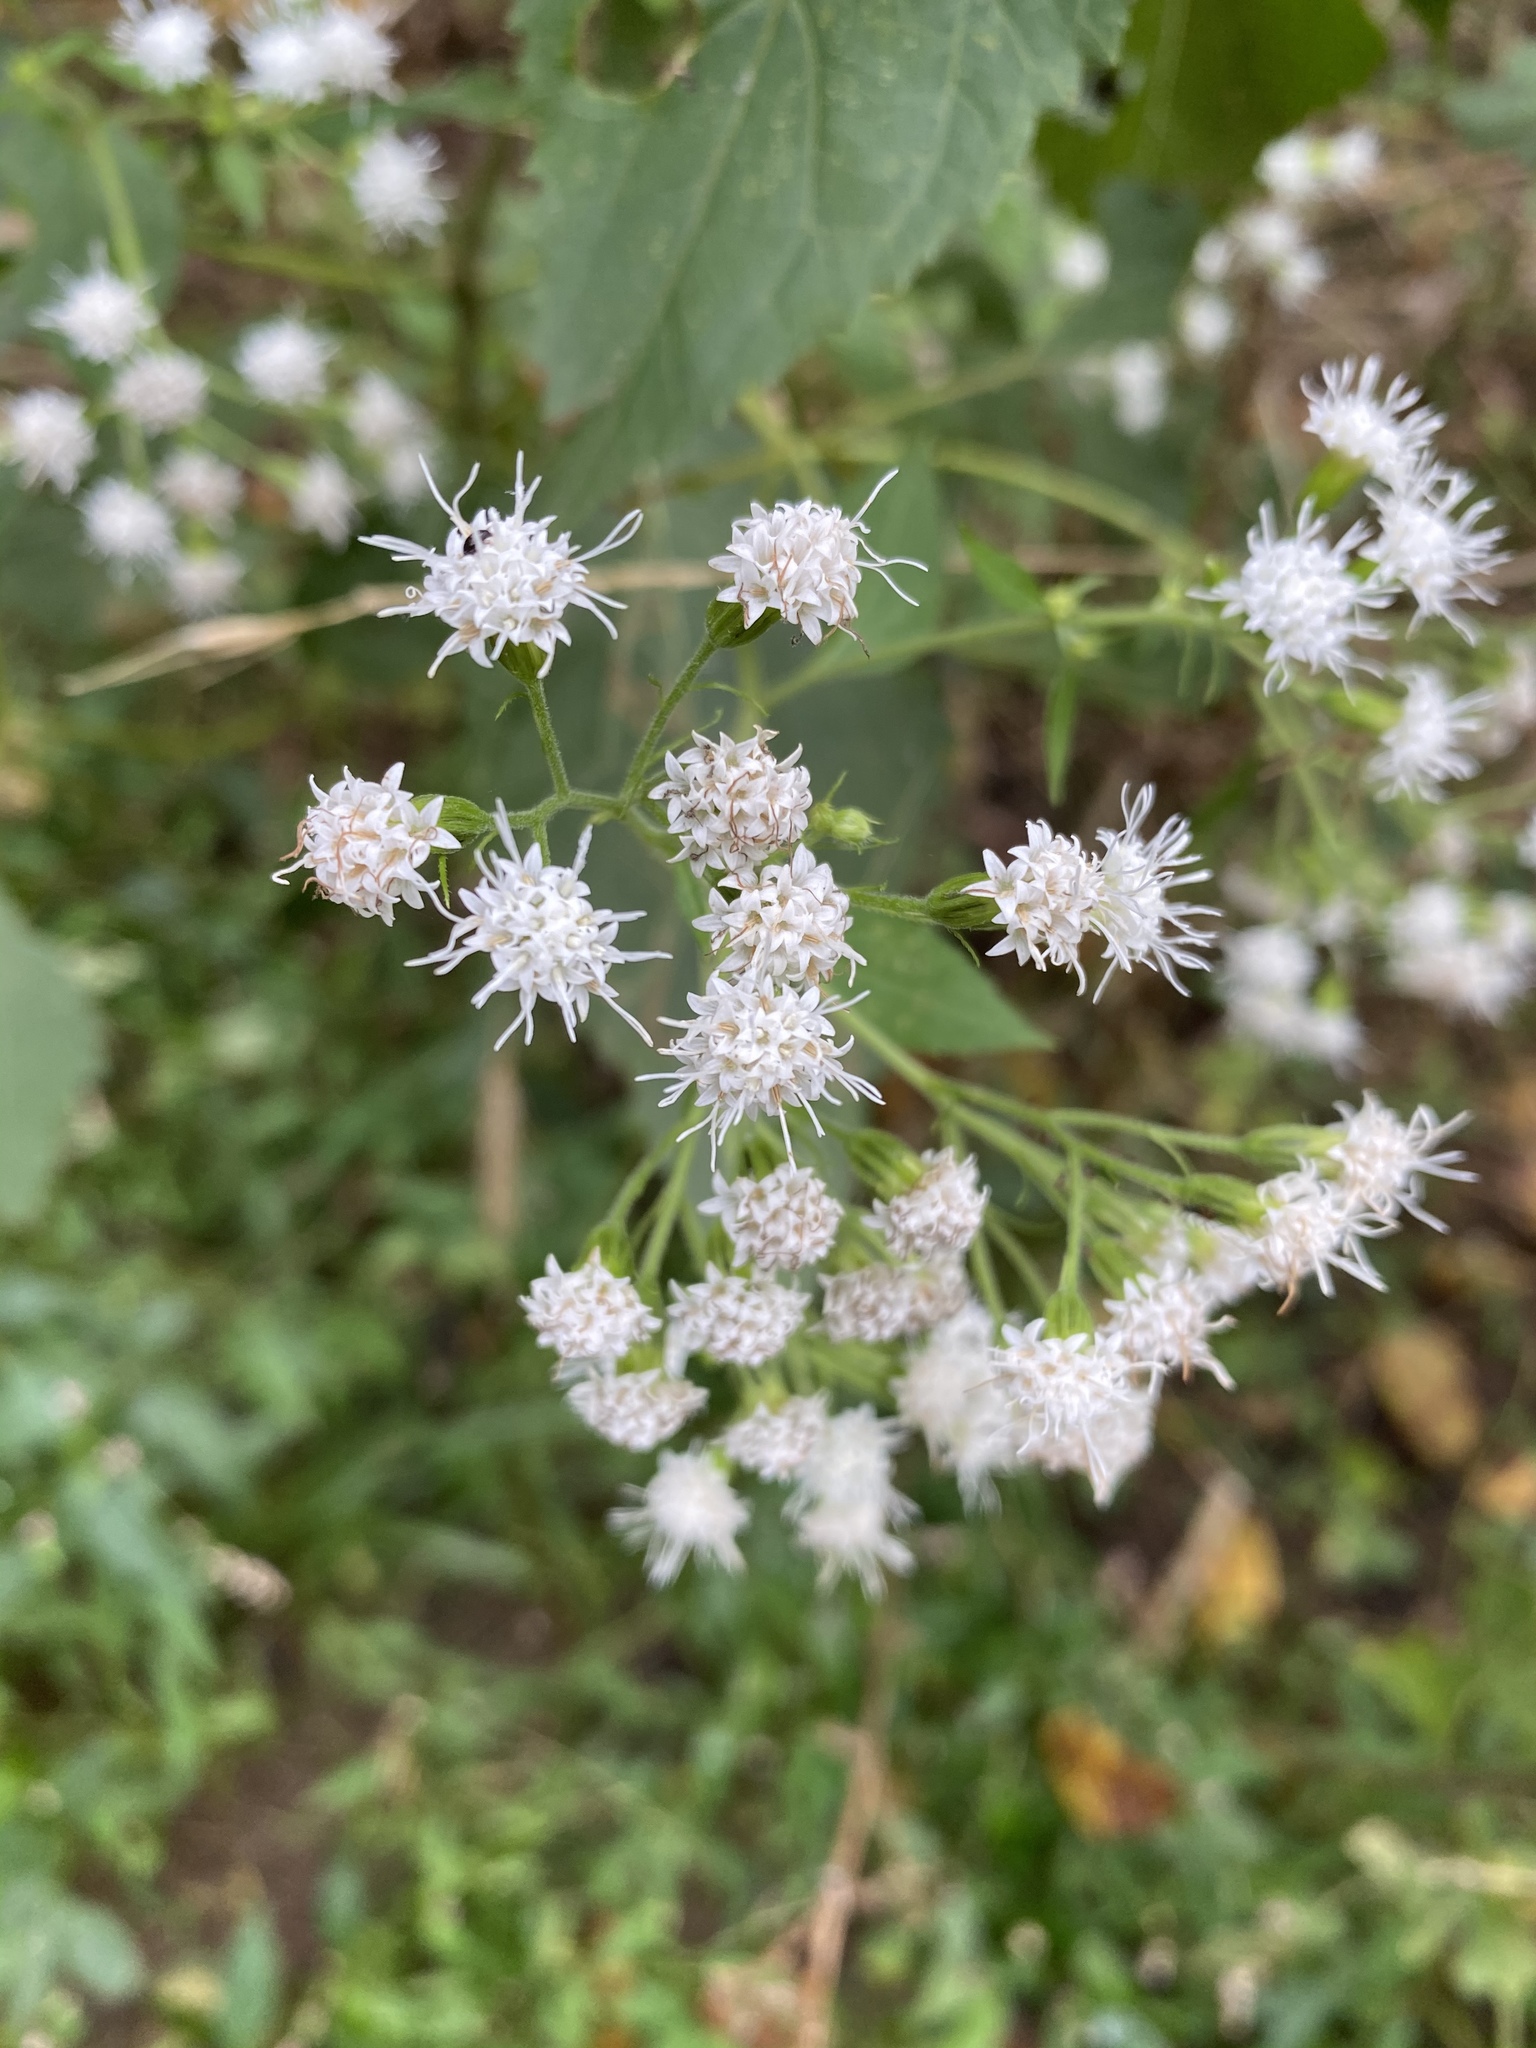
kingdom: Plantae
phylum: Tracheophyta
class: Magnoliopsida
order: Asterales
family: Asteraceae
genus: Ageratina
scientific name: Ageratina altissima
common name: White snakeroot
